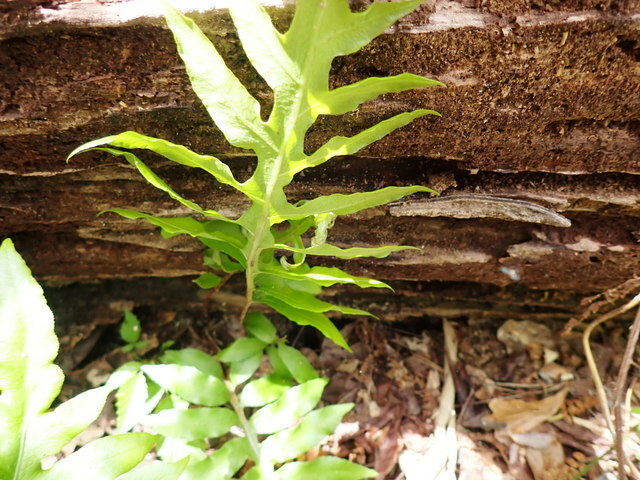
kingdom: Plantae
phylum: Tracheophyta
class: Polypodiopsida
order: Polypodiales
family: Blechnaceae
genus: Lorinseria
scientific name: Lorinseria areolata
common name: Dwarf chain fern
